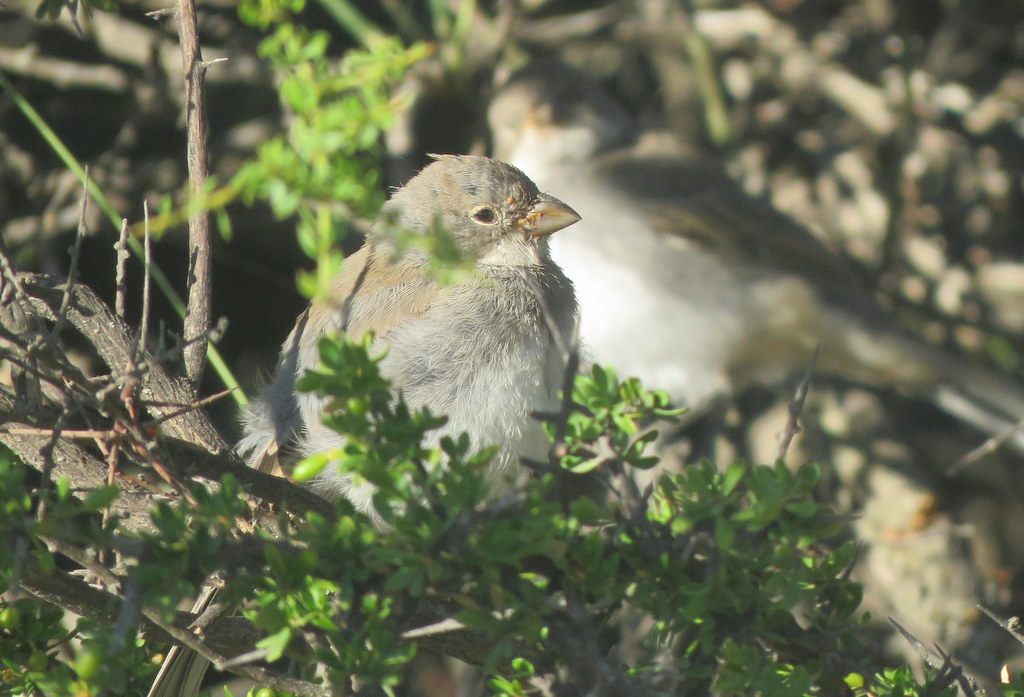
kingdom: Animalia
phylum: Chordata
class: Aves
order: Passeriformes
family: Thraupidae
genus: Diuca
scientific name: Diuca diuca
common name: Common diuca finch
